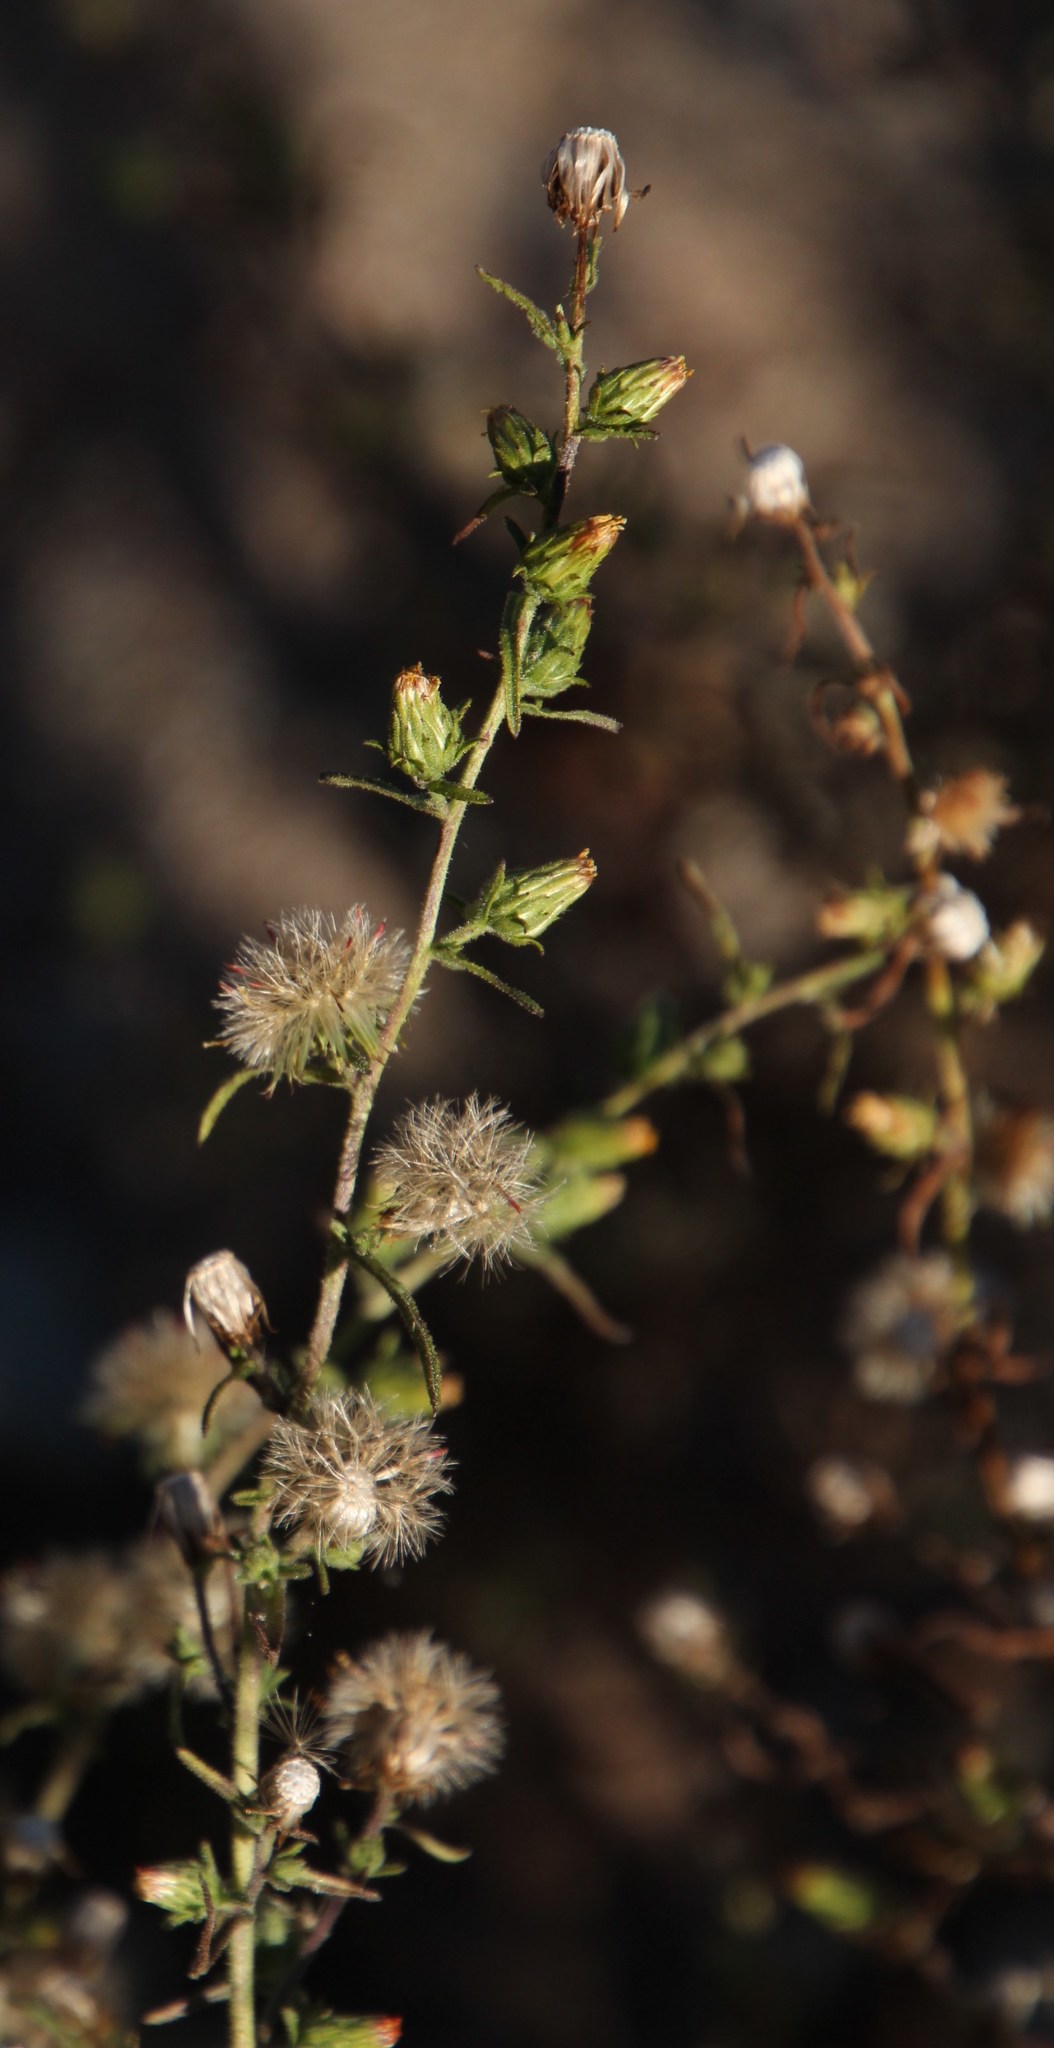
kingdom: Plantae
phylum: Tracheophyta
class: Magnoliopsida
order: Asterales
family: Asteraceae
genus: Dittrichia
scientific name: Dittrichia graveolens
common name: Stinking fleabane
